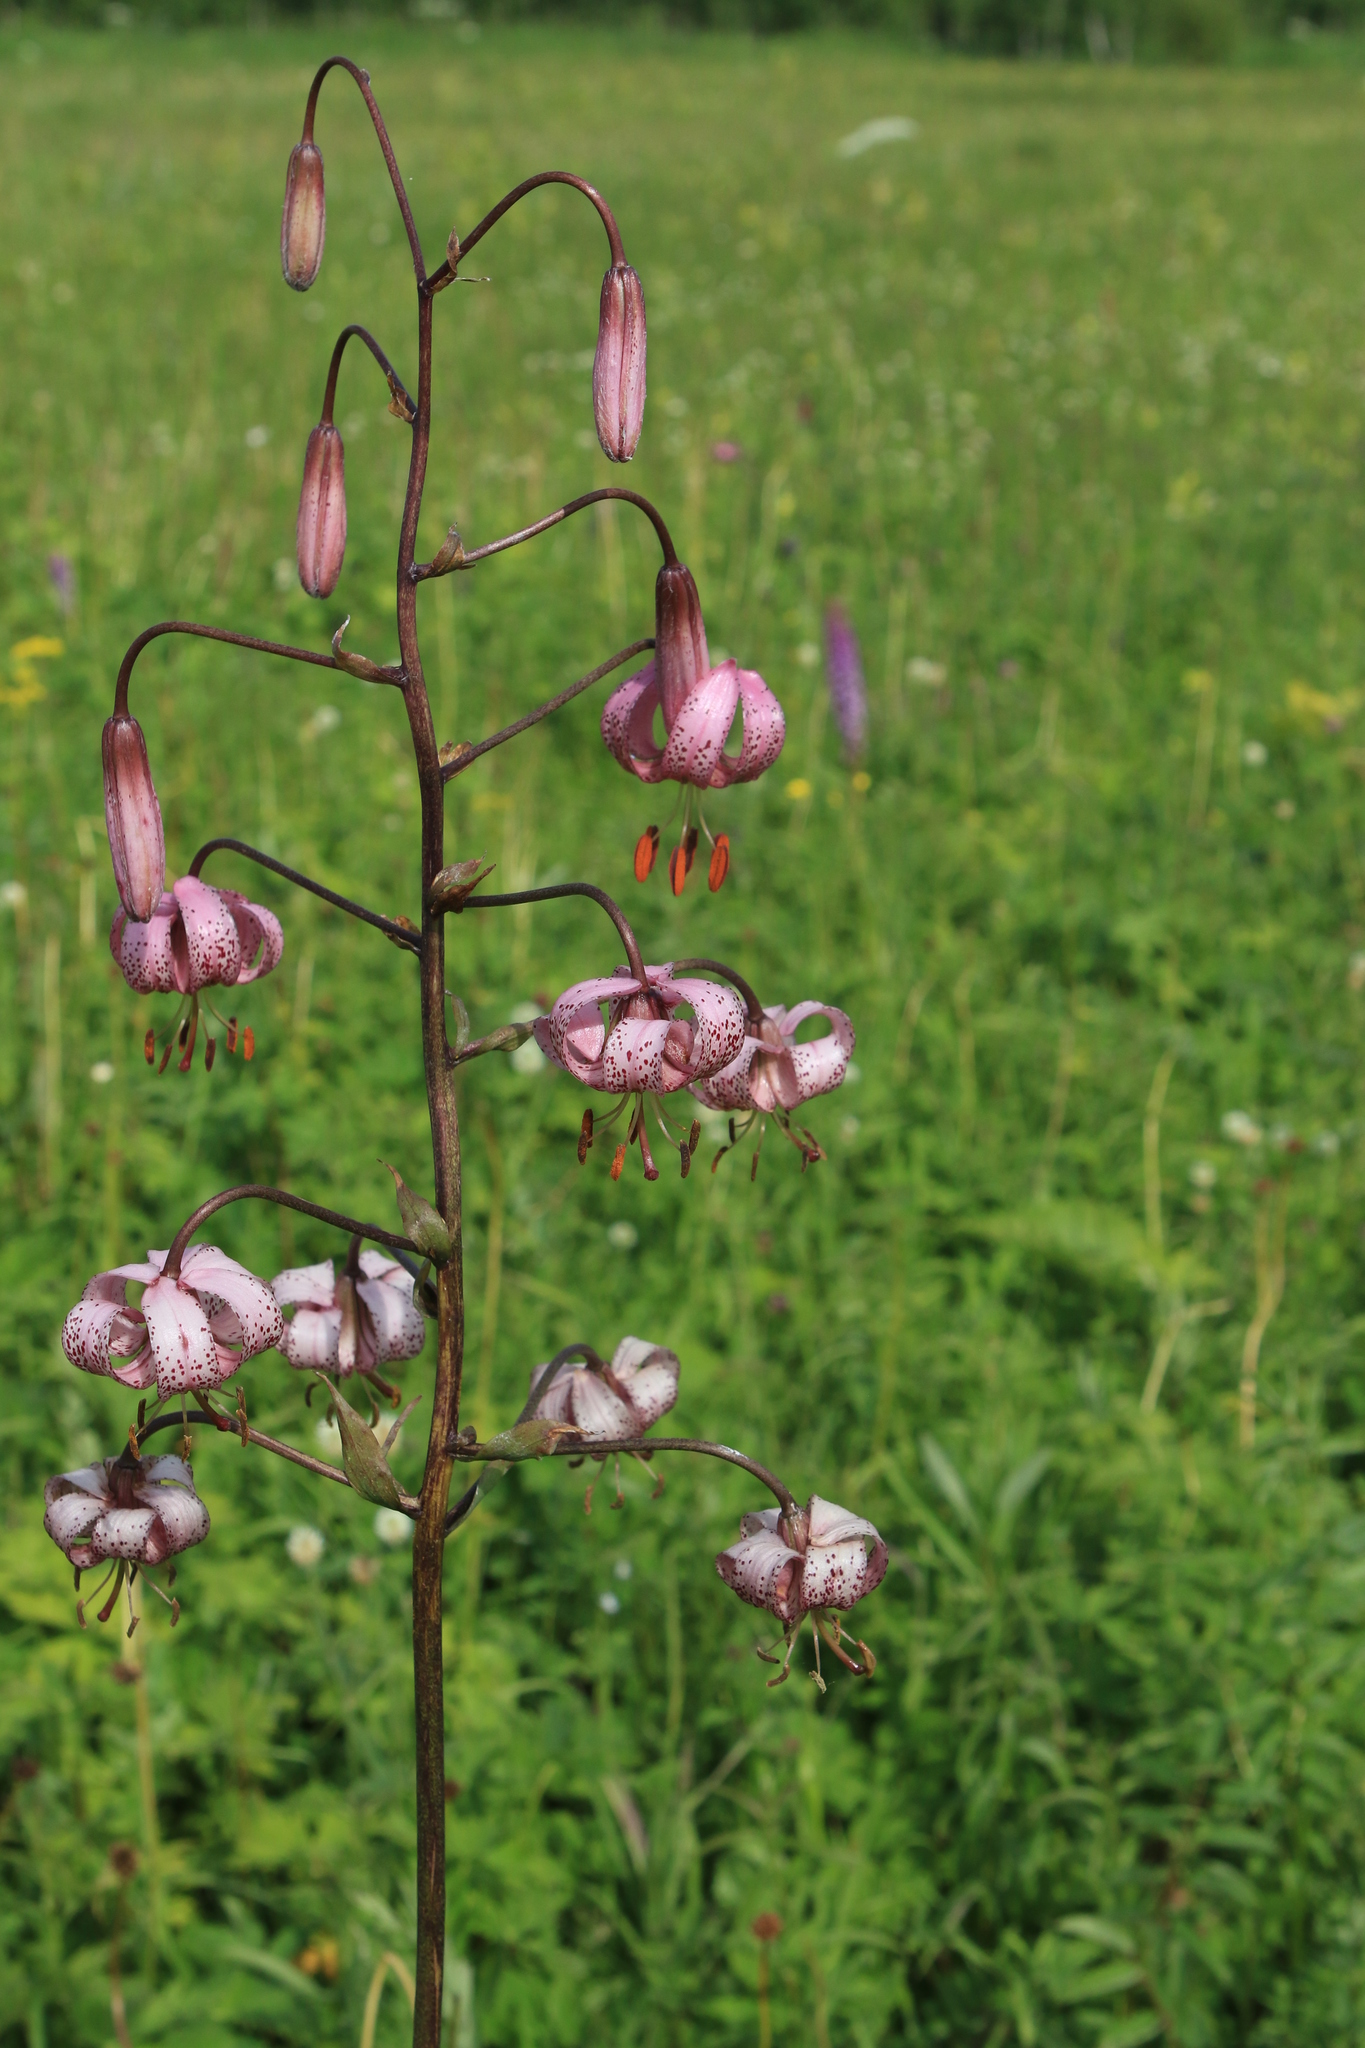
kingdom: Plantae
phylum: Tracheophyta
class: Liliopsida
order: Liliales
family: Liliaceae
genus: Lilium
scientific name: Lilium martagon
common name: Martagon lily
